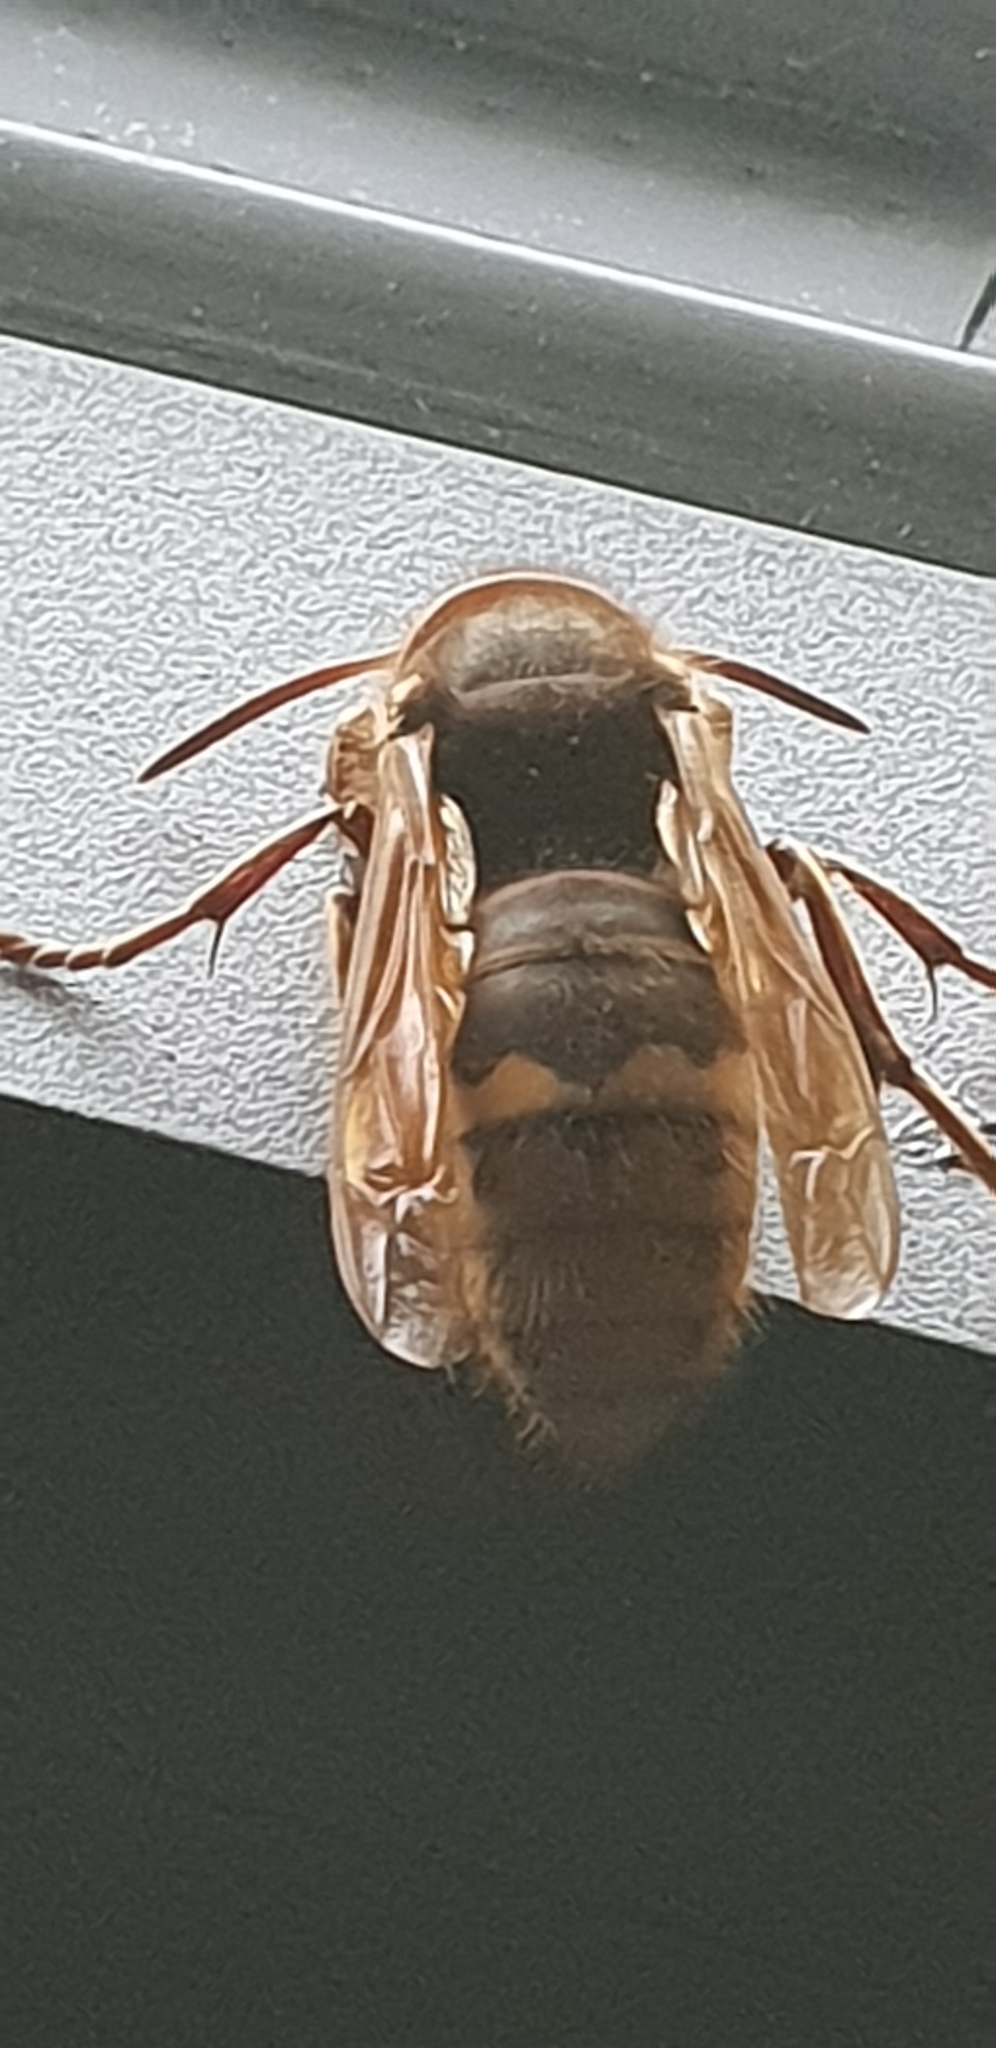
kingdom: Animalia
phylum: Arthropoda
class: Insecta
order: Hymenoptera
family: Vespidae
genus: Vespa
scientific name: Vespa crabro
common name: Hornet
